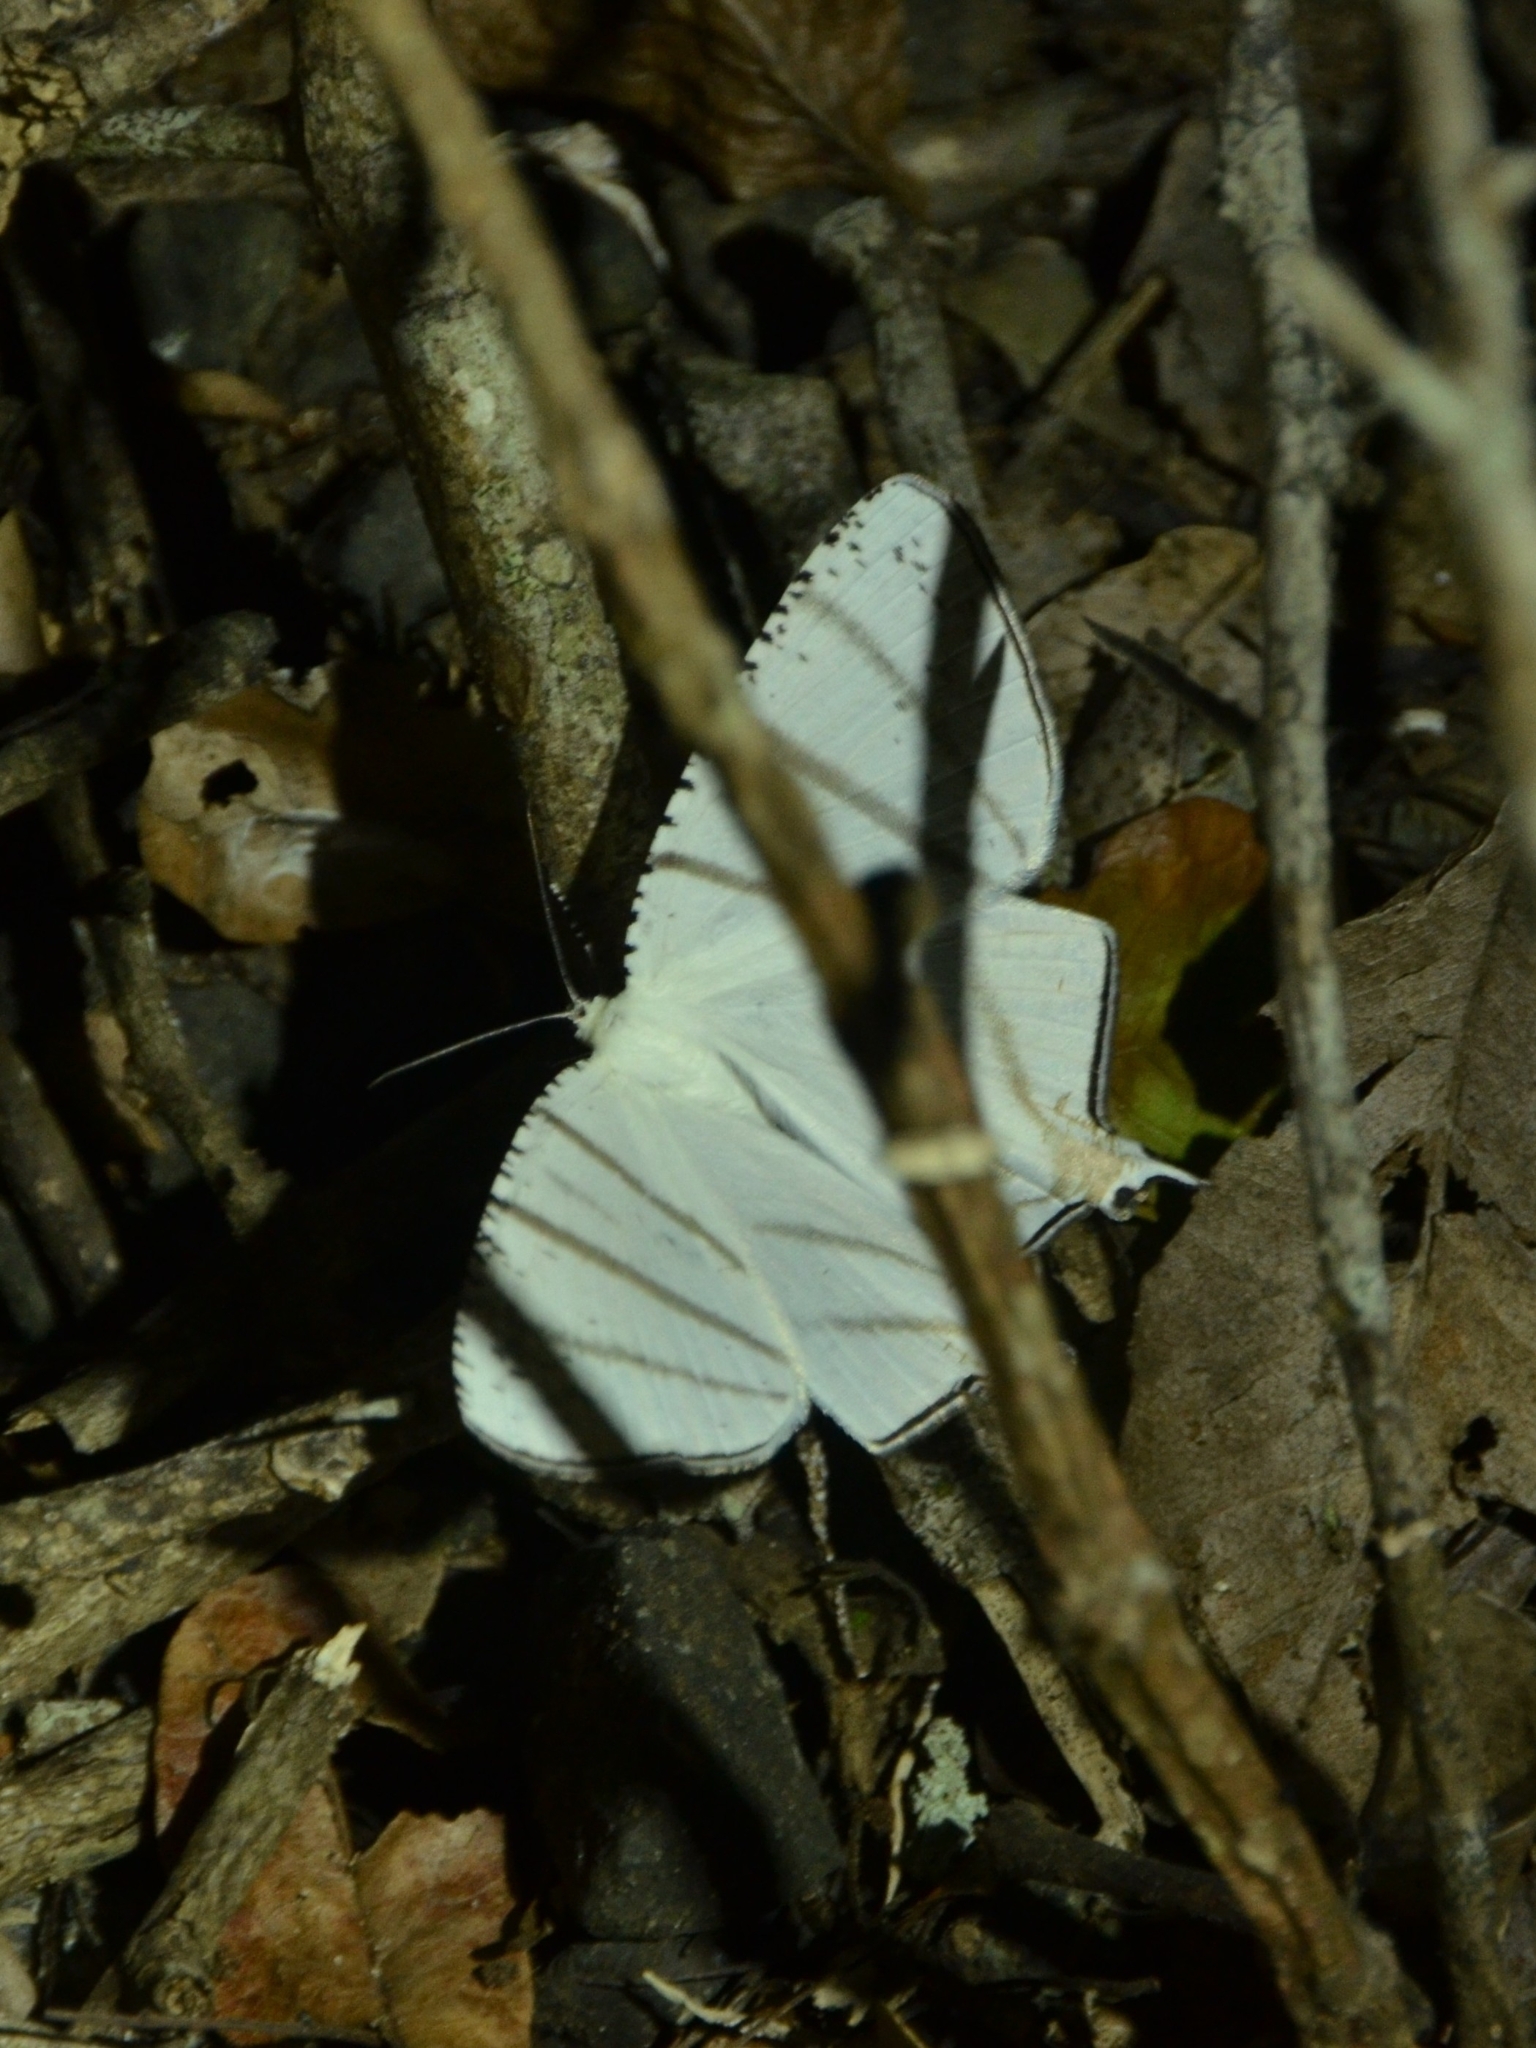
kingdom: Animalia
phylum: Arthropoda
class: Insecta
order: Lepidoptera
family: Uraniidae
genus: Urapteroides
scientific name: Urapteroides recurvata
